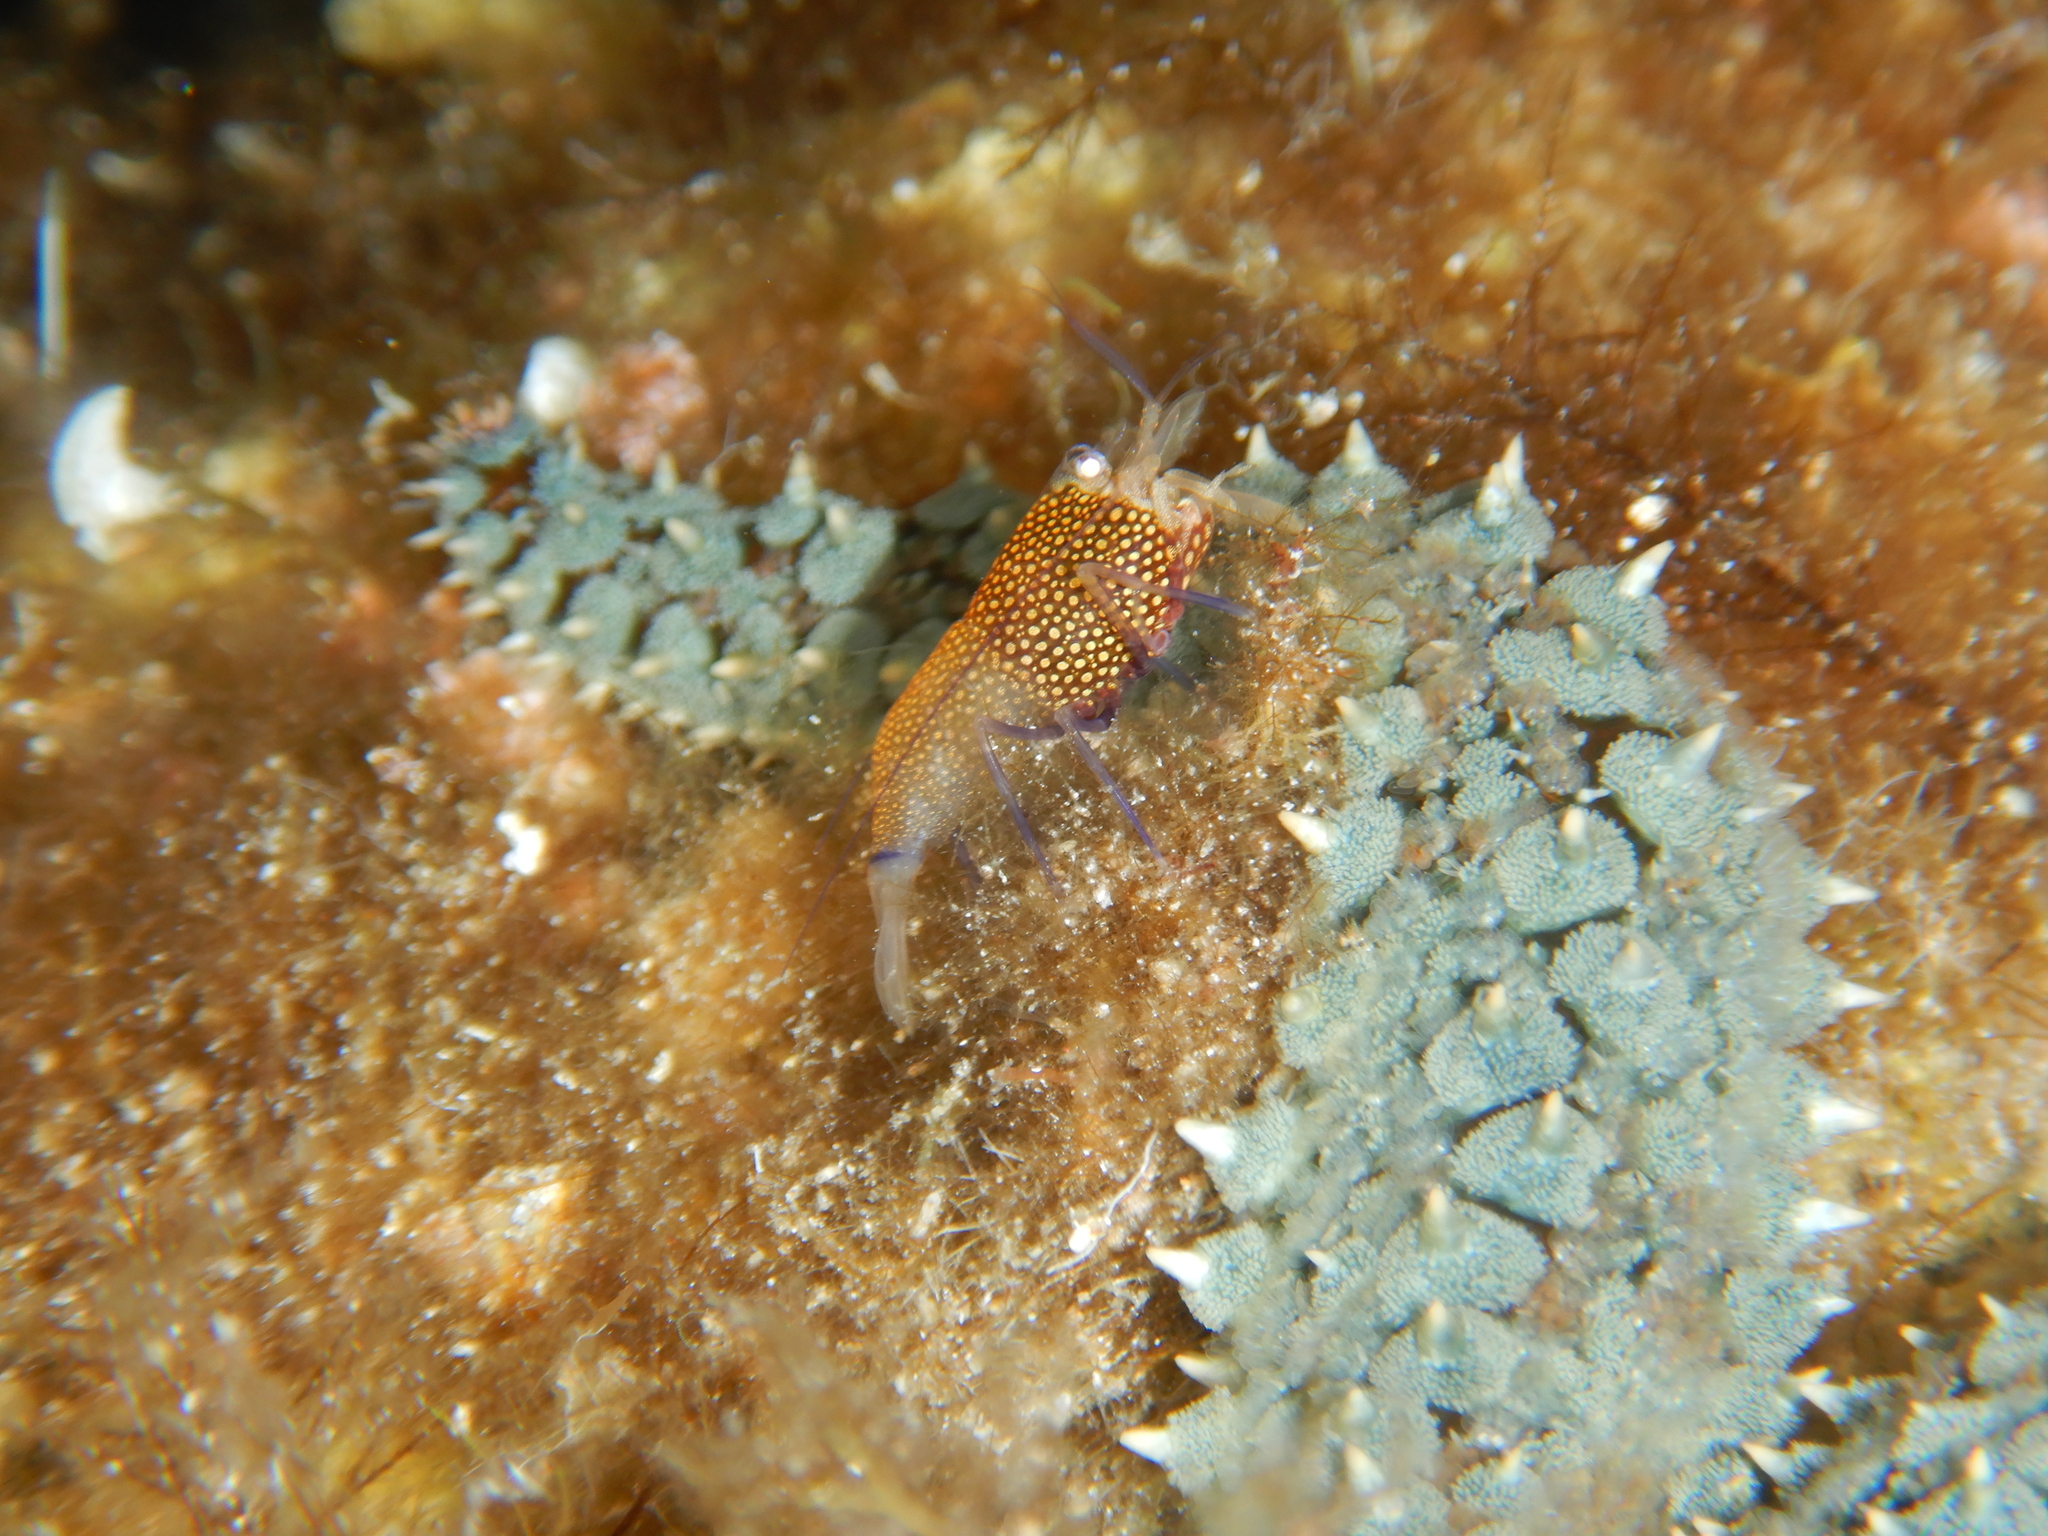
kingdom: Animalia
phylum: Arthropoda
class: Malacostraca
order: Decapoda
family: Palaemonidae
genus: Gnathophyllum
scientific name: Gnathophyllum elegans
